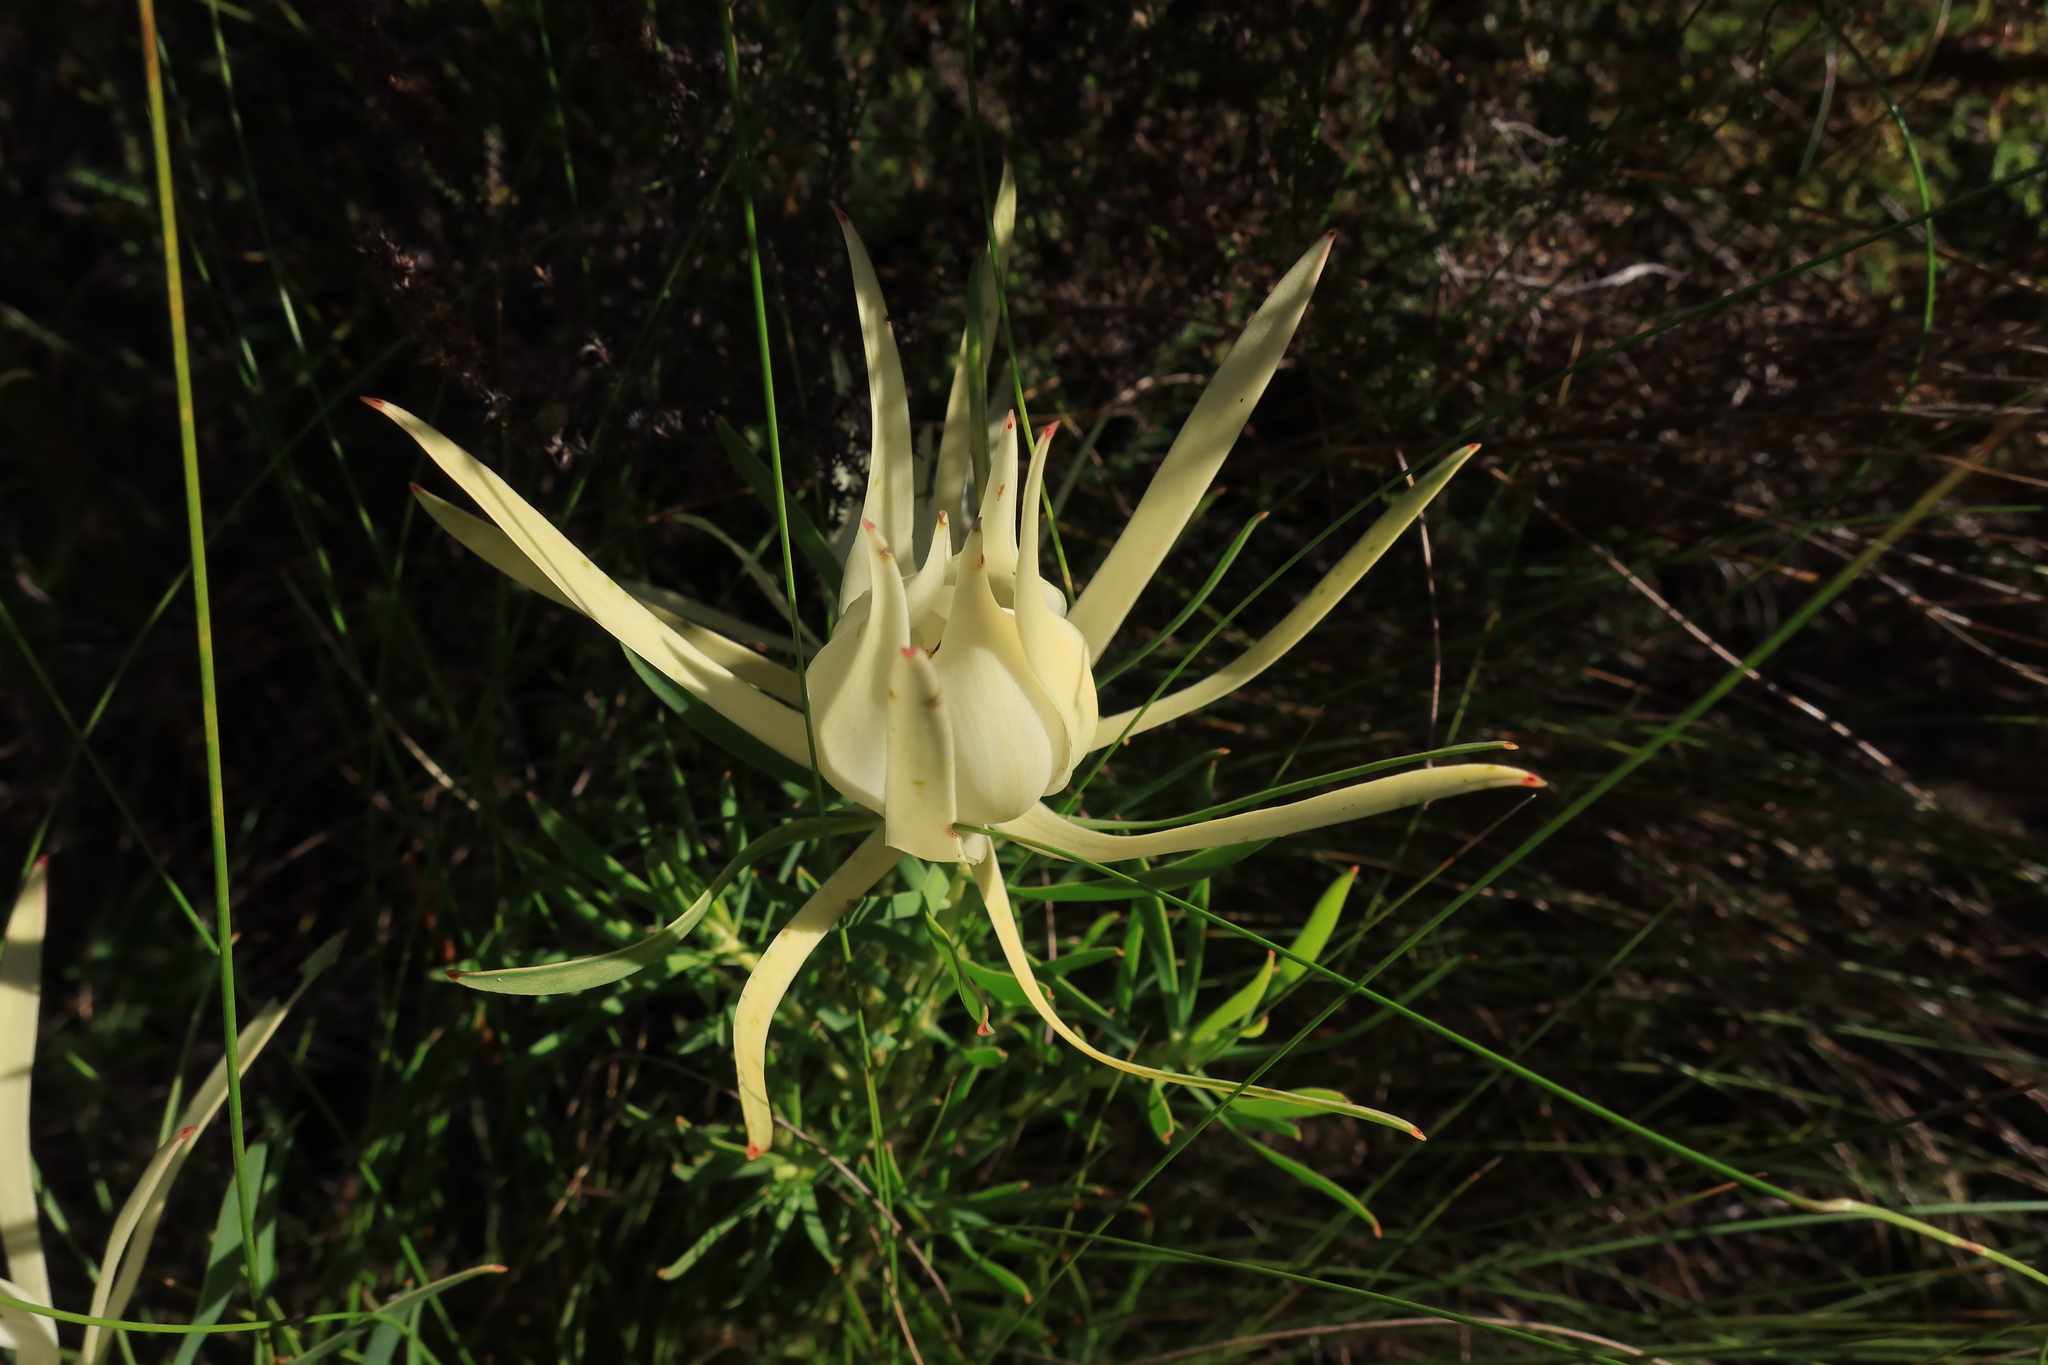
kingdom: Plantae
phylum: Tracheophyta
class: Magnoliopsida
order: Proteales
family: Proteaceae
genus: Leucadendron
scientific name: Leucadendron salignum
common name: Common sunshine conebush
